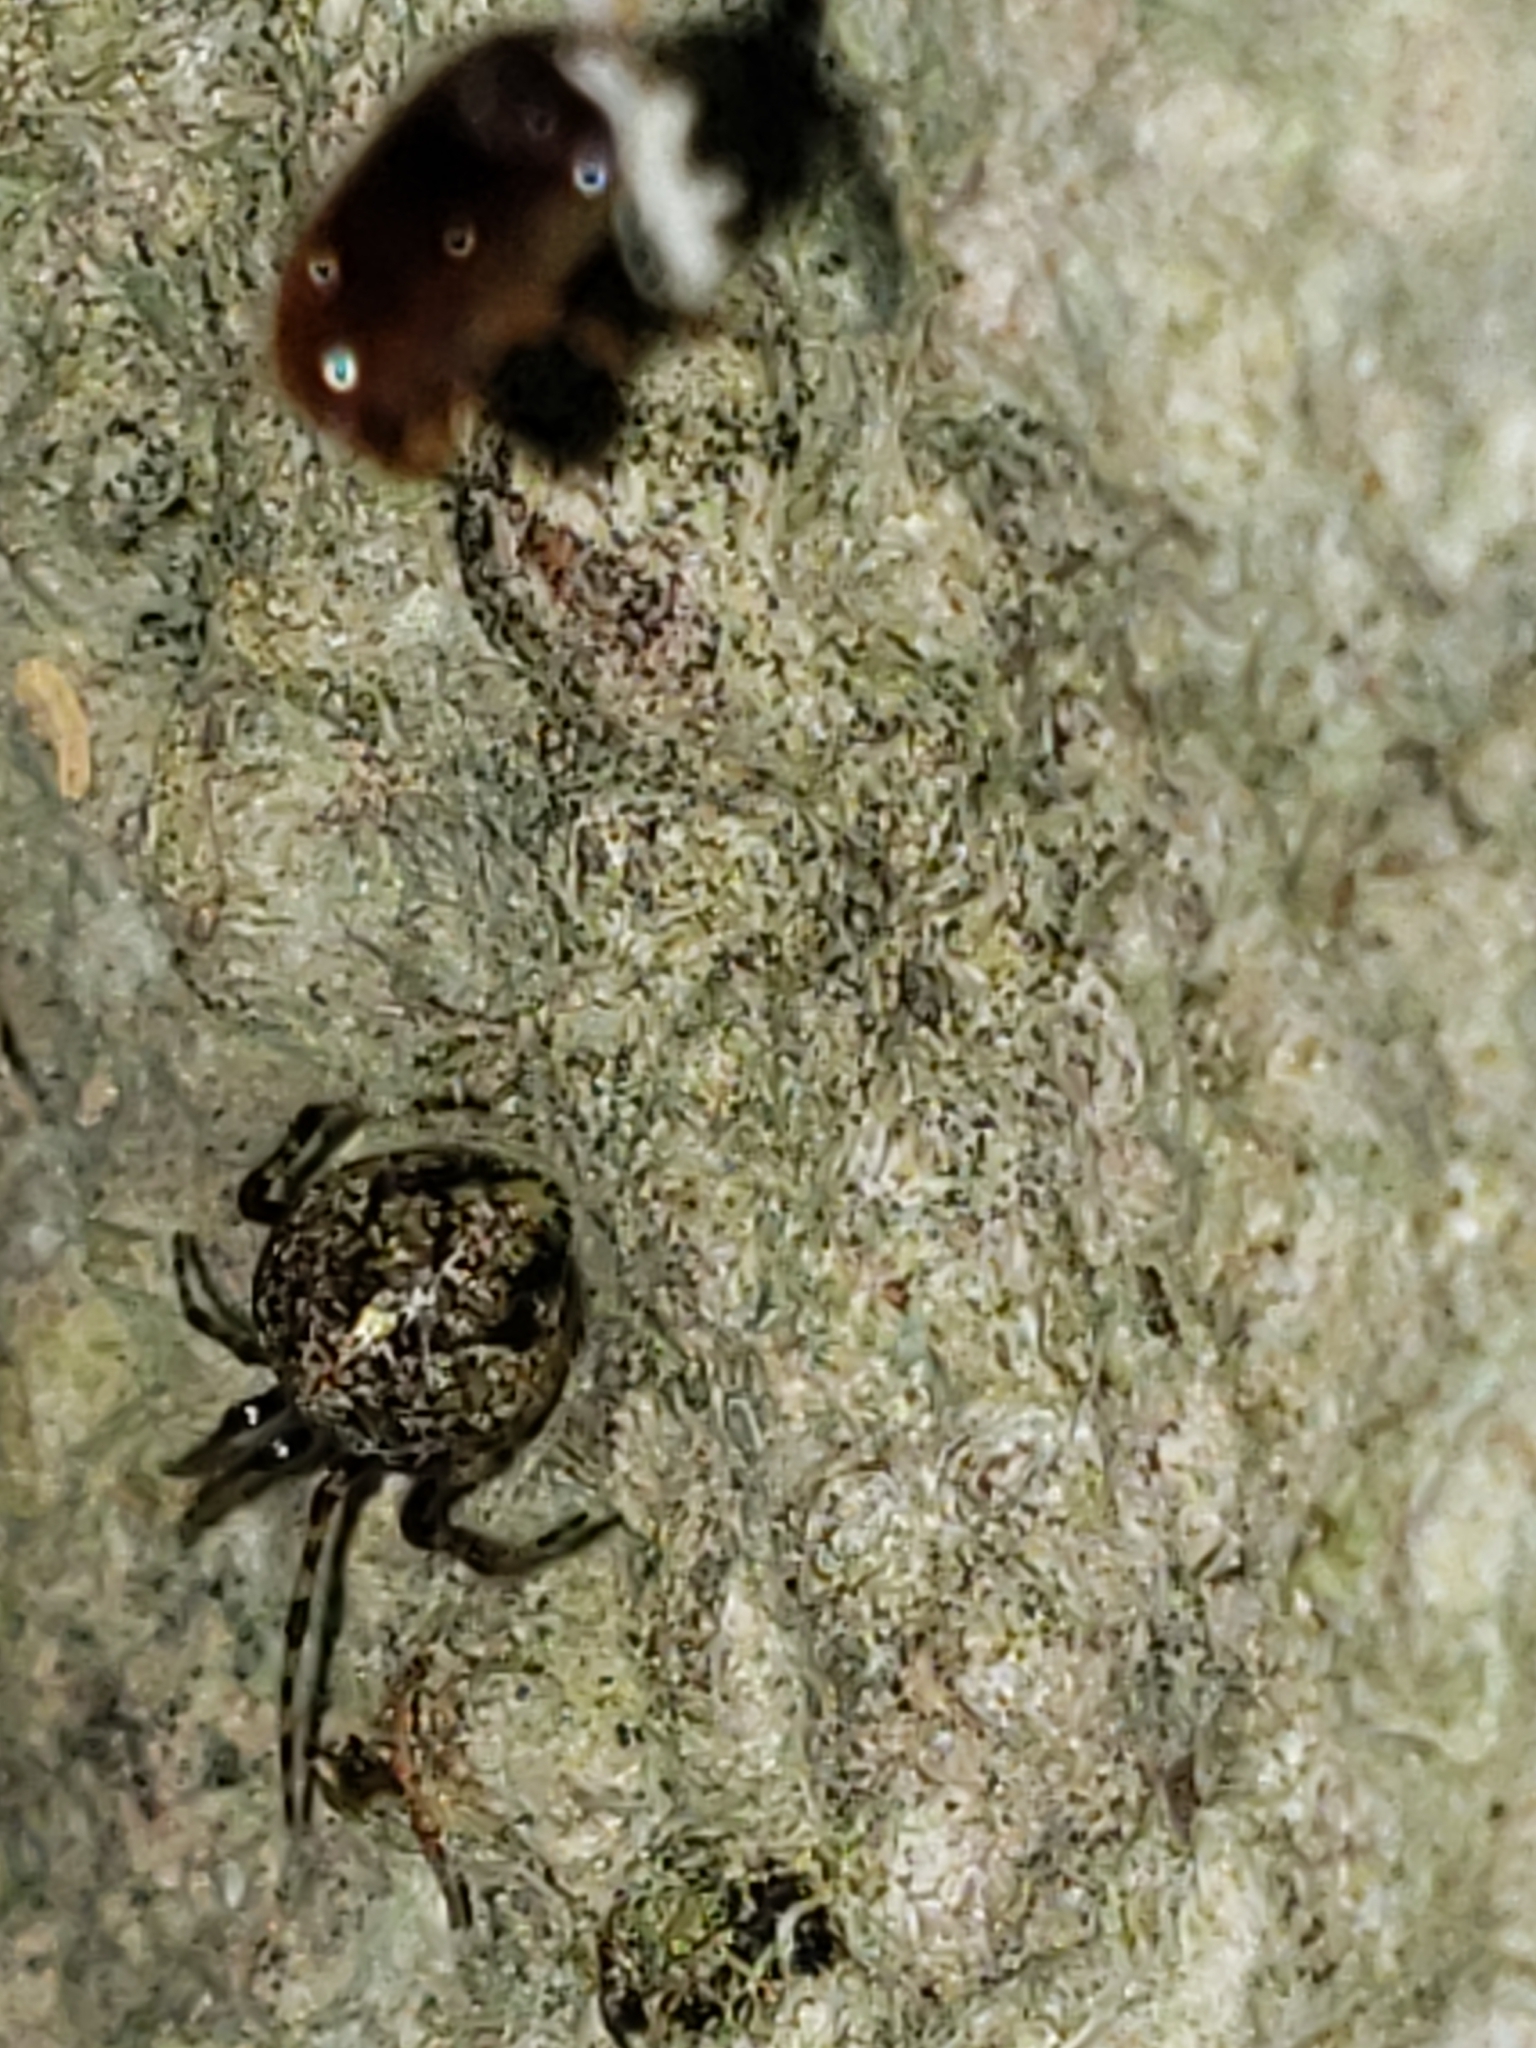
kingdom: Animalia
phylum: Arthropoda
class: Arachnida
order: Araneae
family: Theridiidae
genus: Yunohamella
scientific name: Yunohamella lyrica
